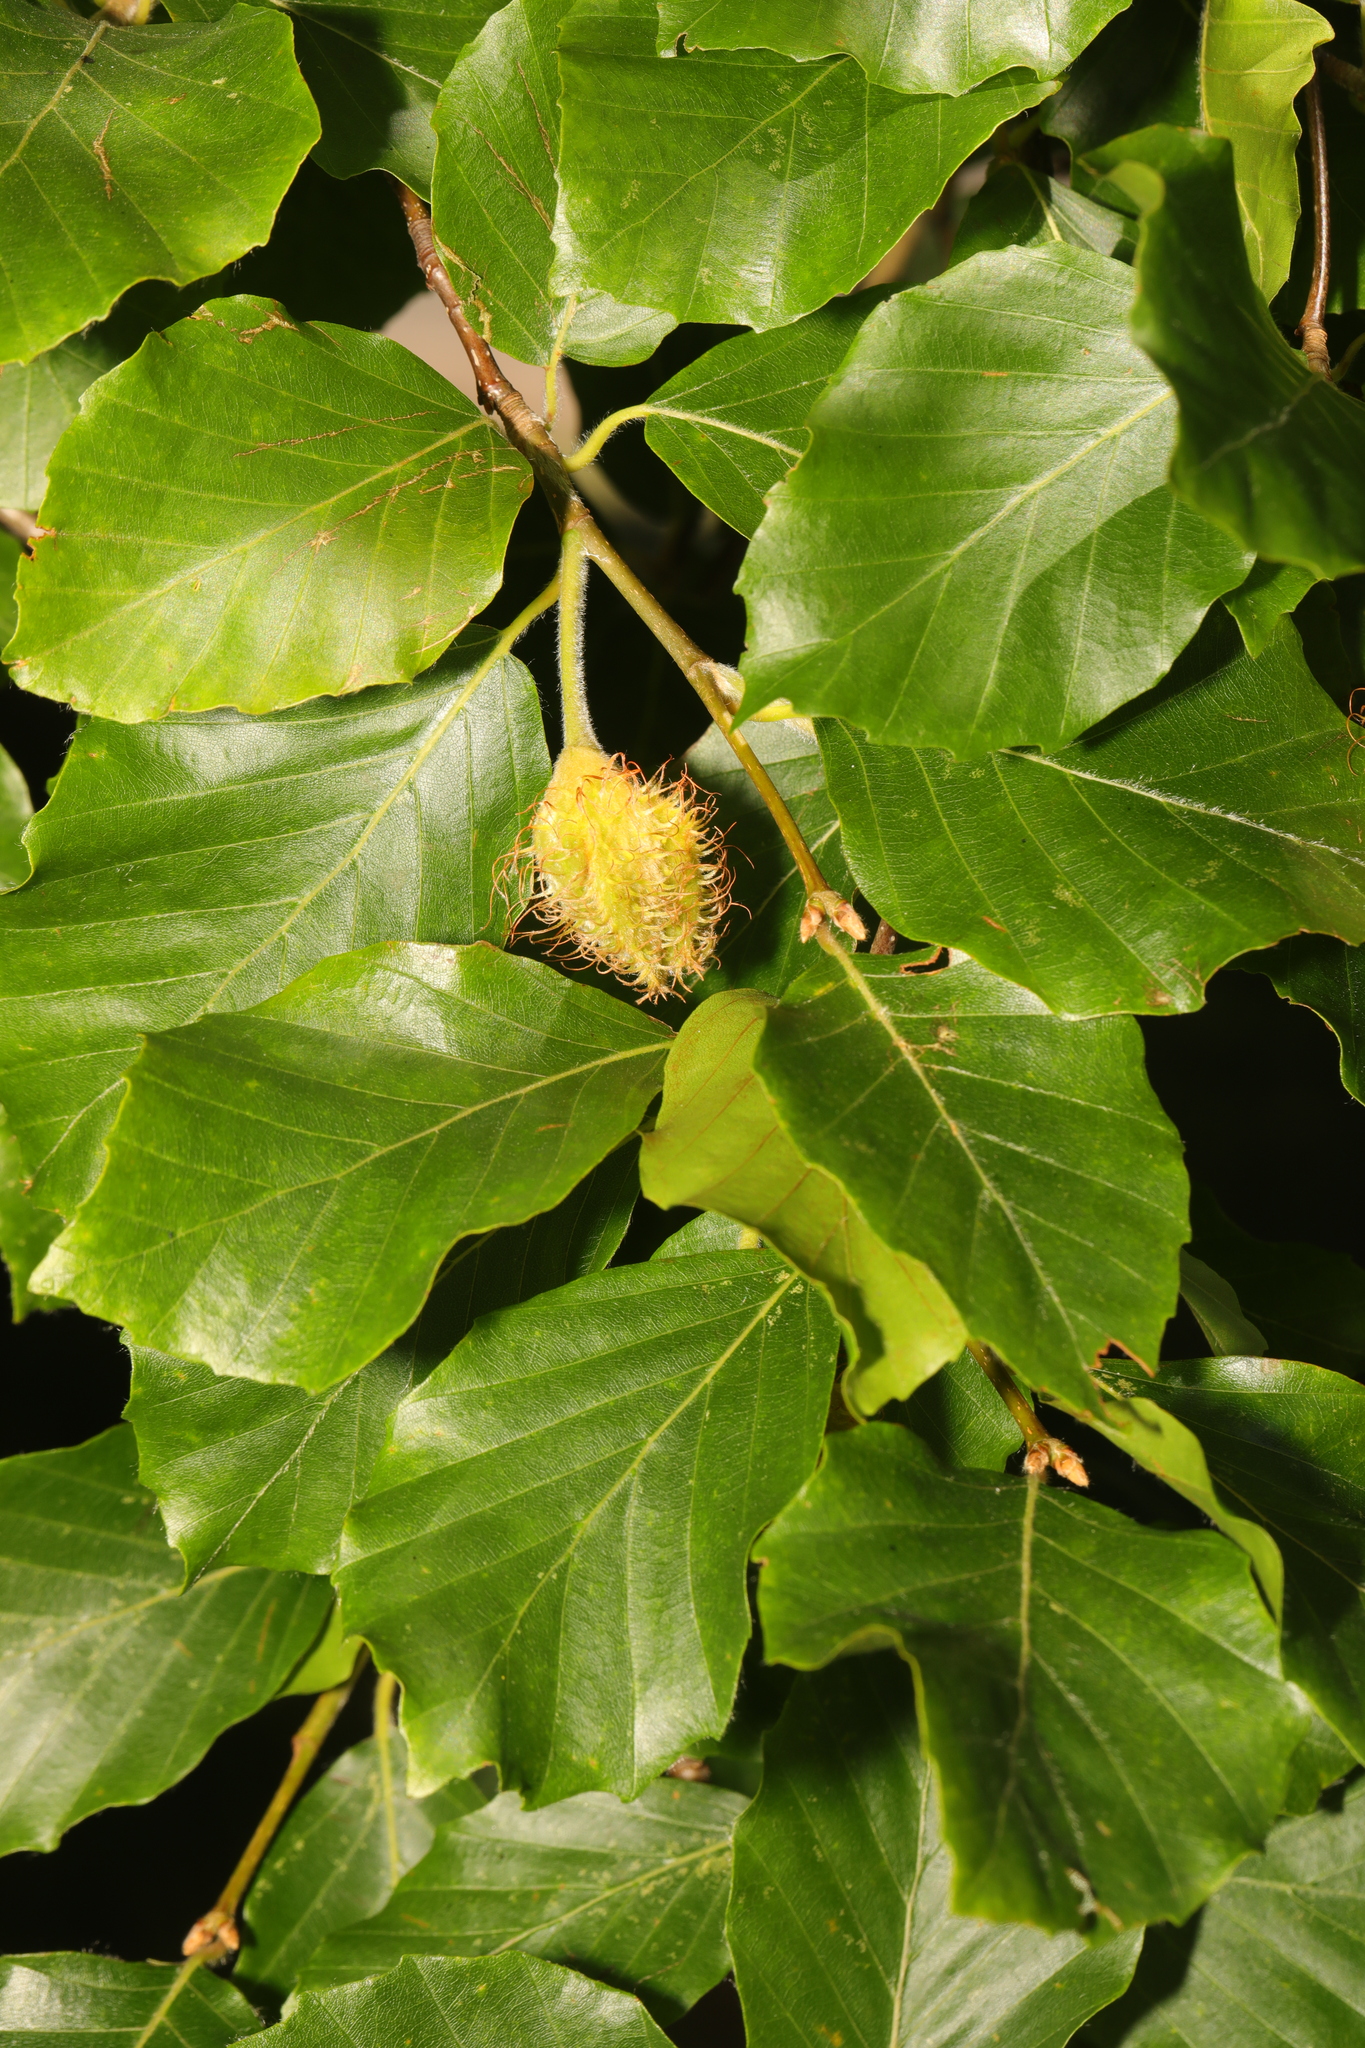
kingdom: Plantae
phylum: Tracheophyta
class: Magnoliopsida
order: Fagales
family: Fagaceae
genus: Fagus
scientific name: Fagus sylvatica
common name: Beech
